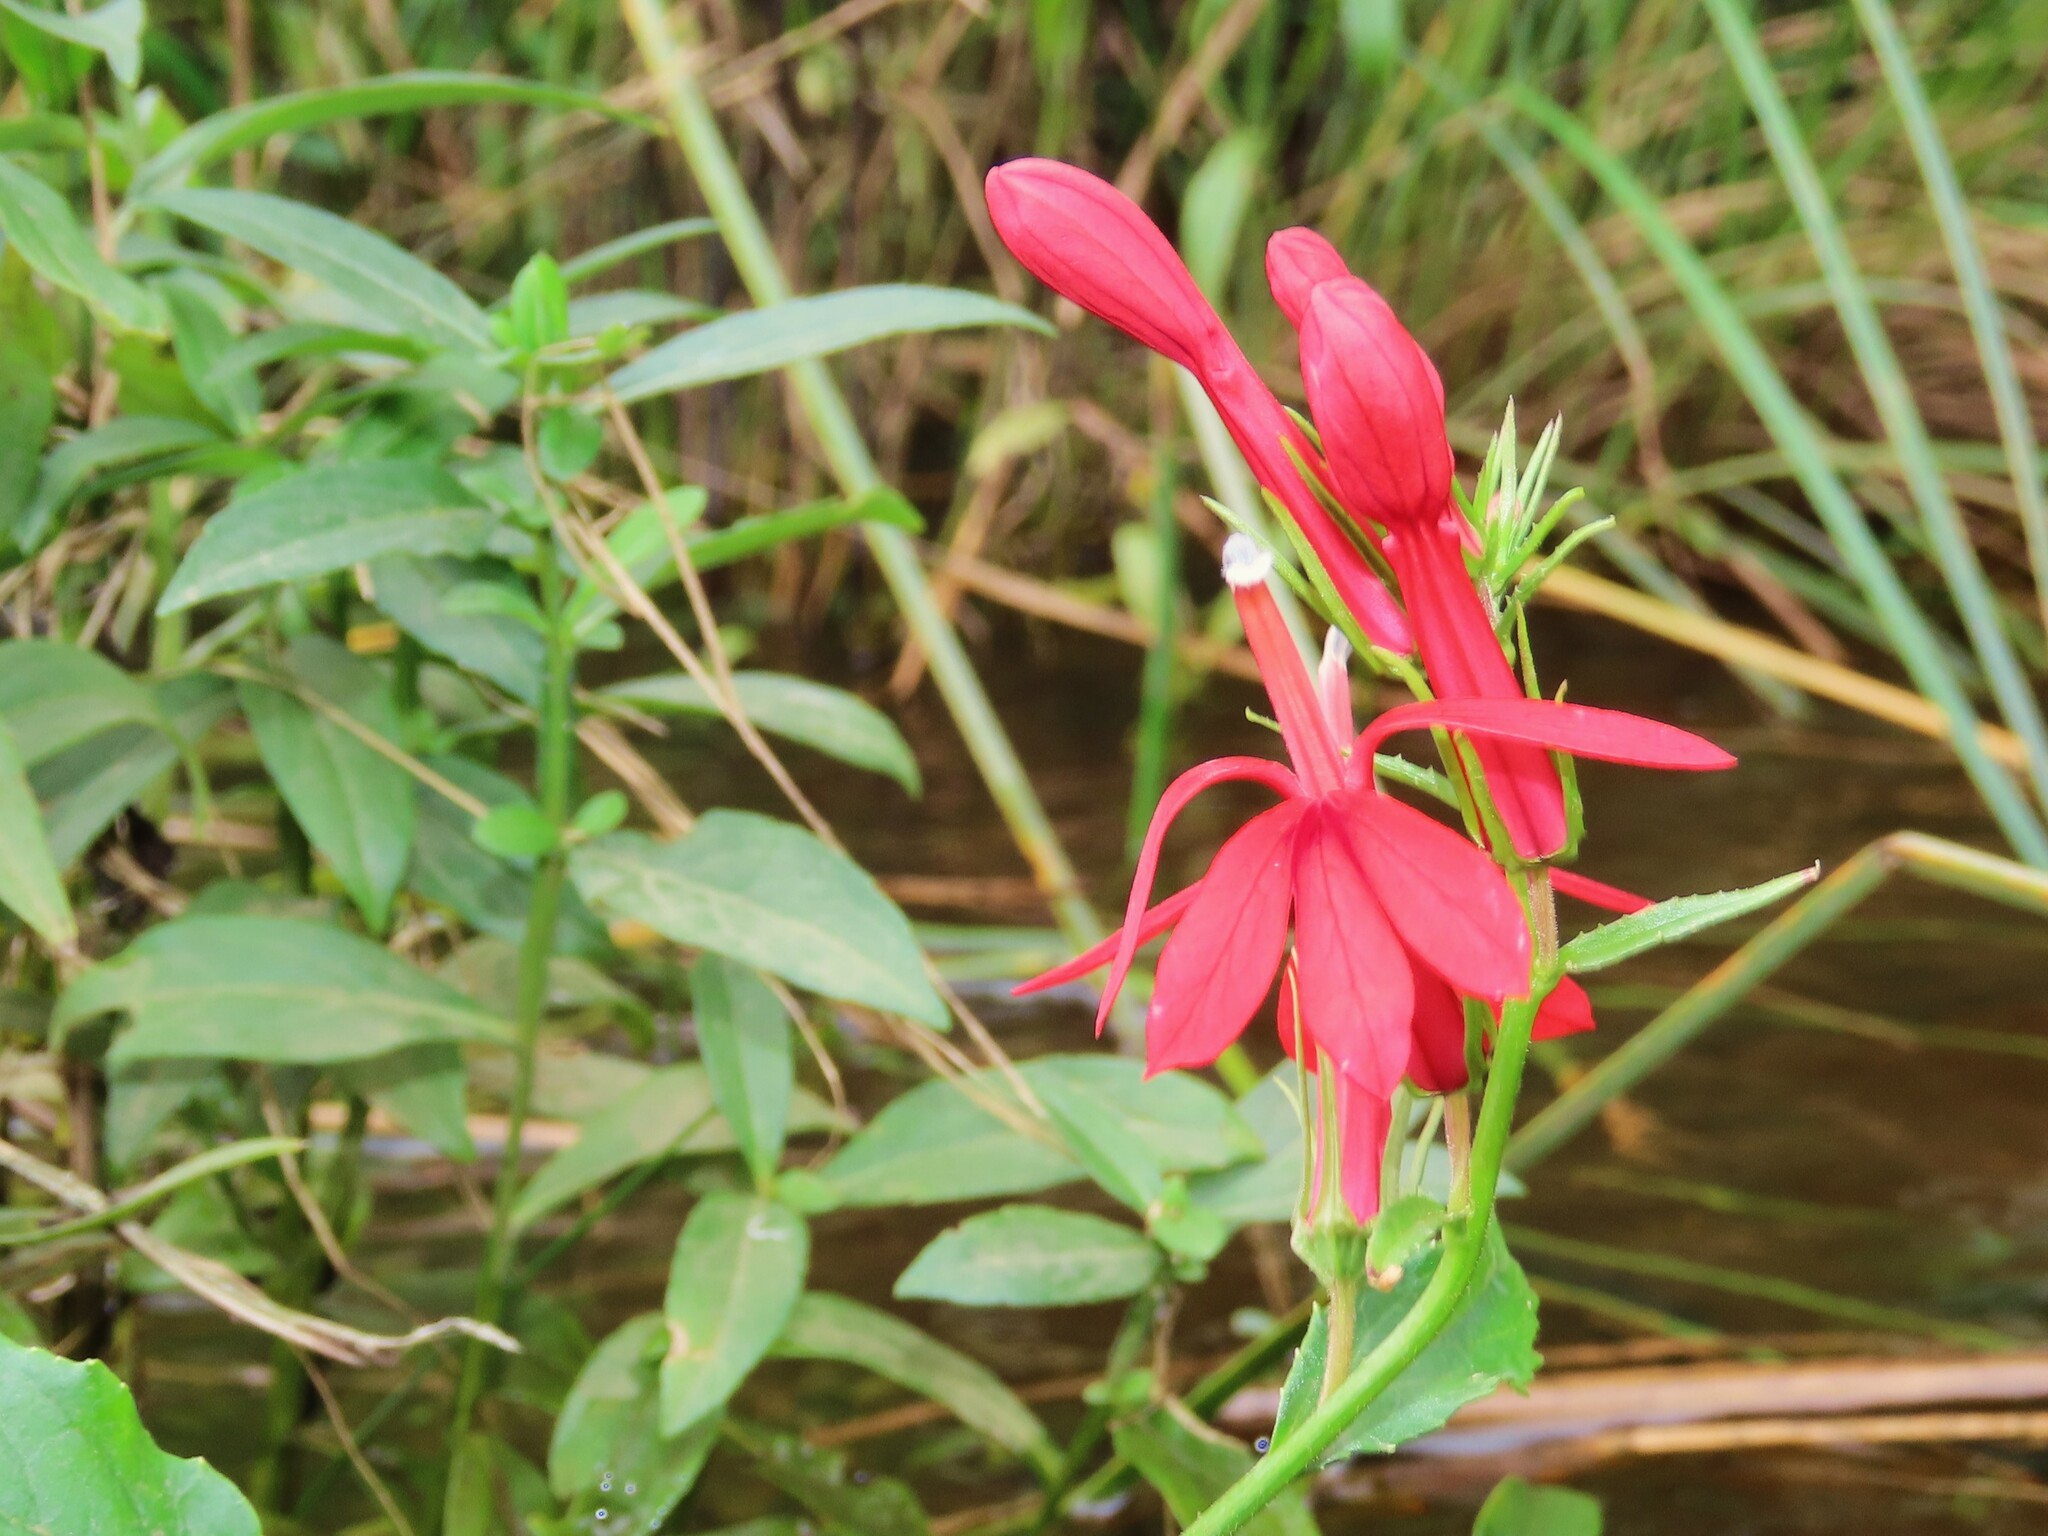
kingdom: Plantae
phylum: Tracheophyta
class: Magnoliopsida
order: Asterales
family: Campanulaceae
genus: Lobelia
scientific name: Lobelia cardinalis
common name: Cardinal flower
